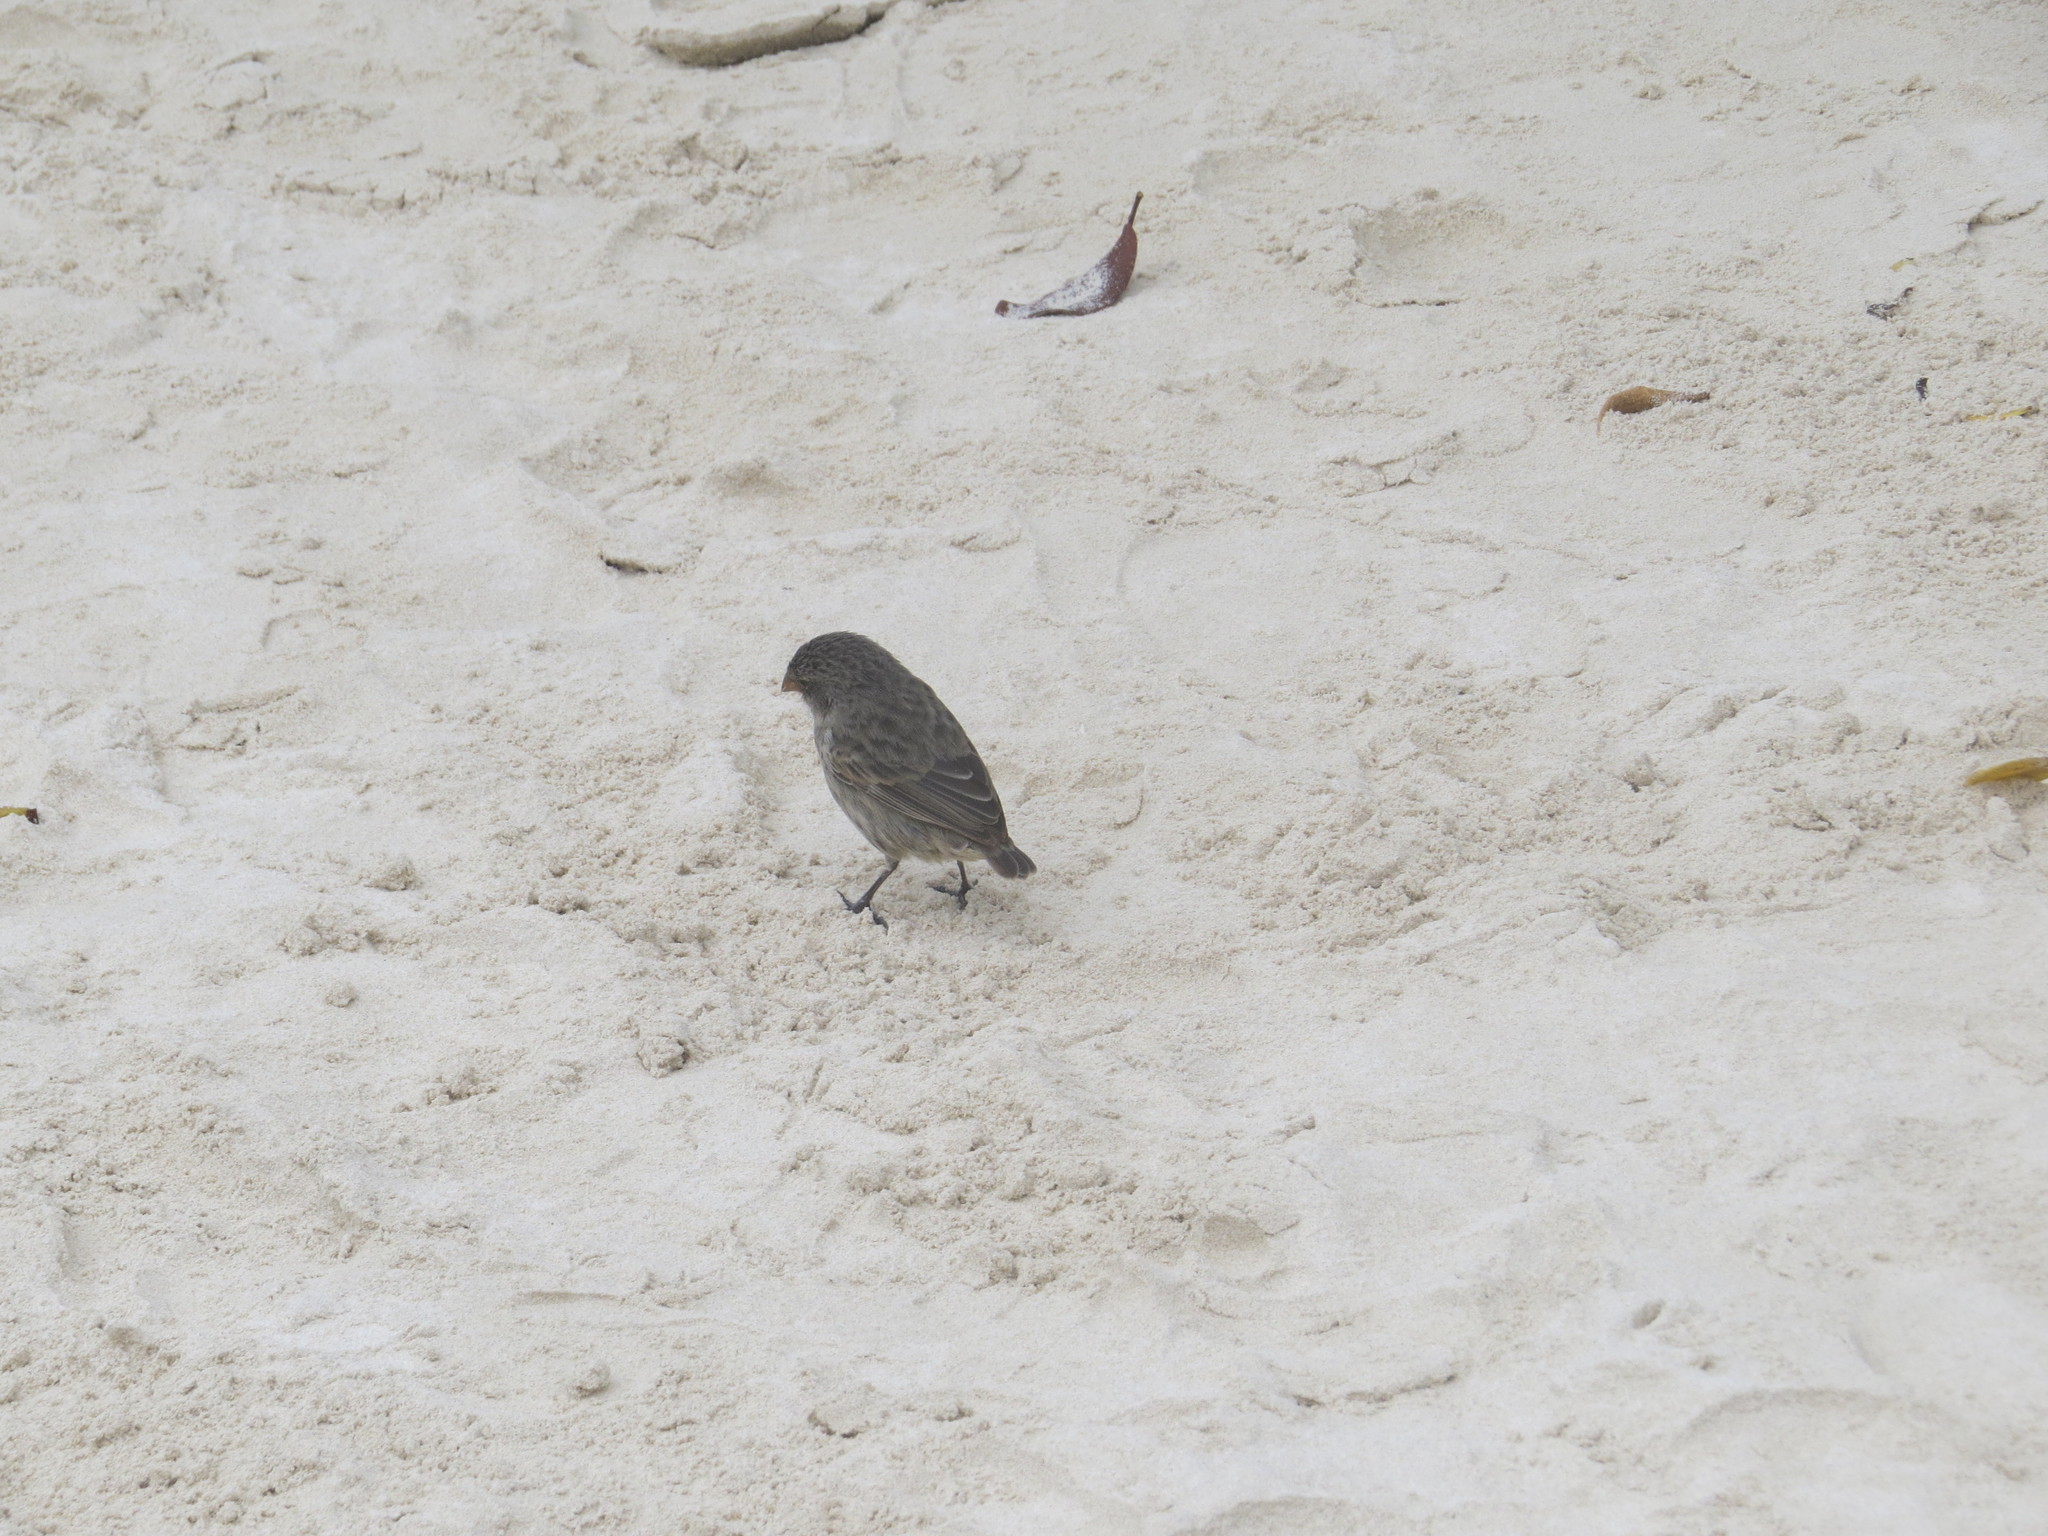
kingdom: Animalia
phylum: Chordata
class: Aves
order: Passeriformes
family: Thraupidae
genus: Geospiza
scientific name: Geospiza fuliginosa
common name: Small ground finch
